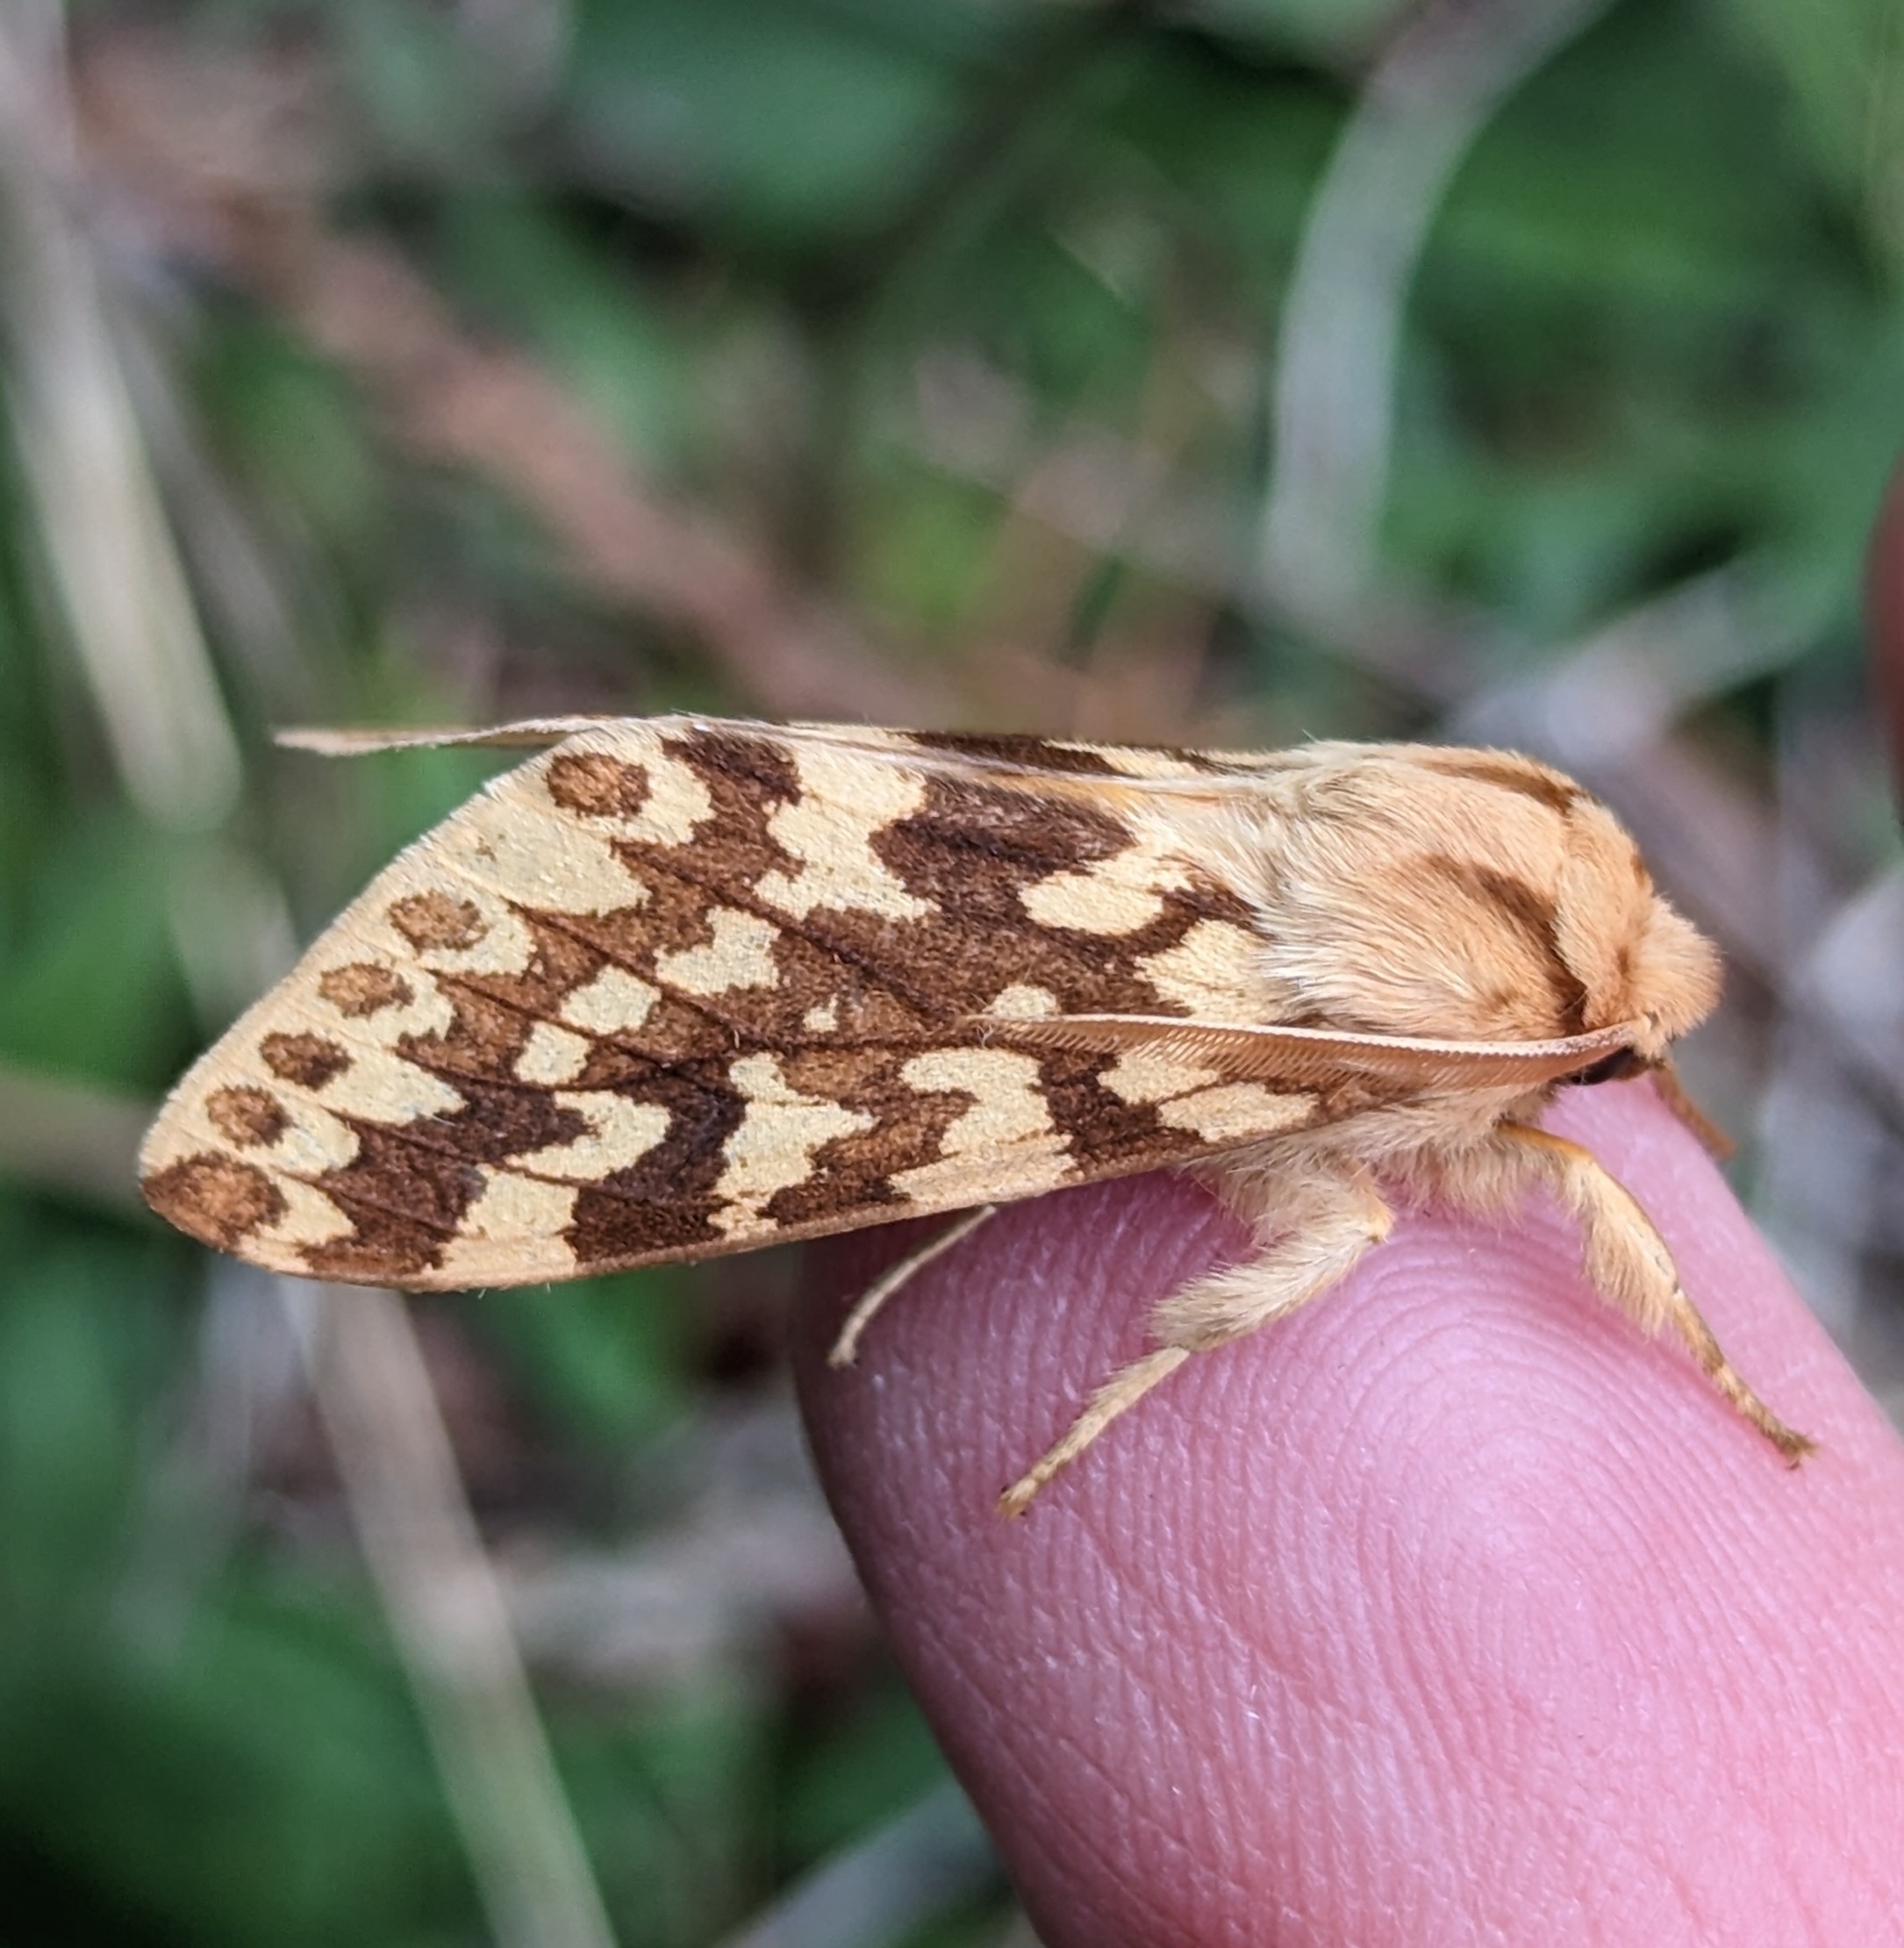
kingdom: Animalia
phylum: Arthropoda
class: Insecta
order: Lepidoptera
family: Erebidae
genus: Lophocampa
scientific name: Lophocampa maculata
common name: Spotted tussock moth
